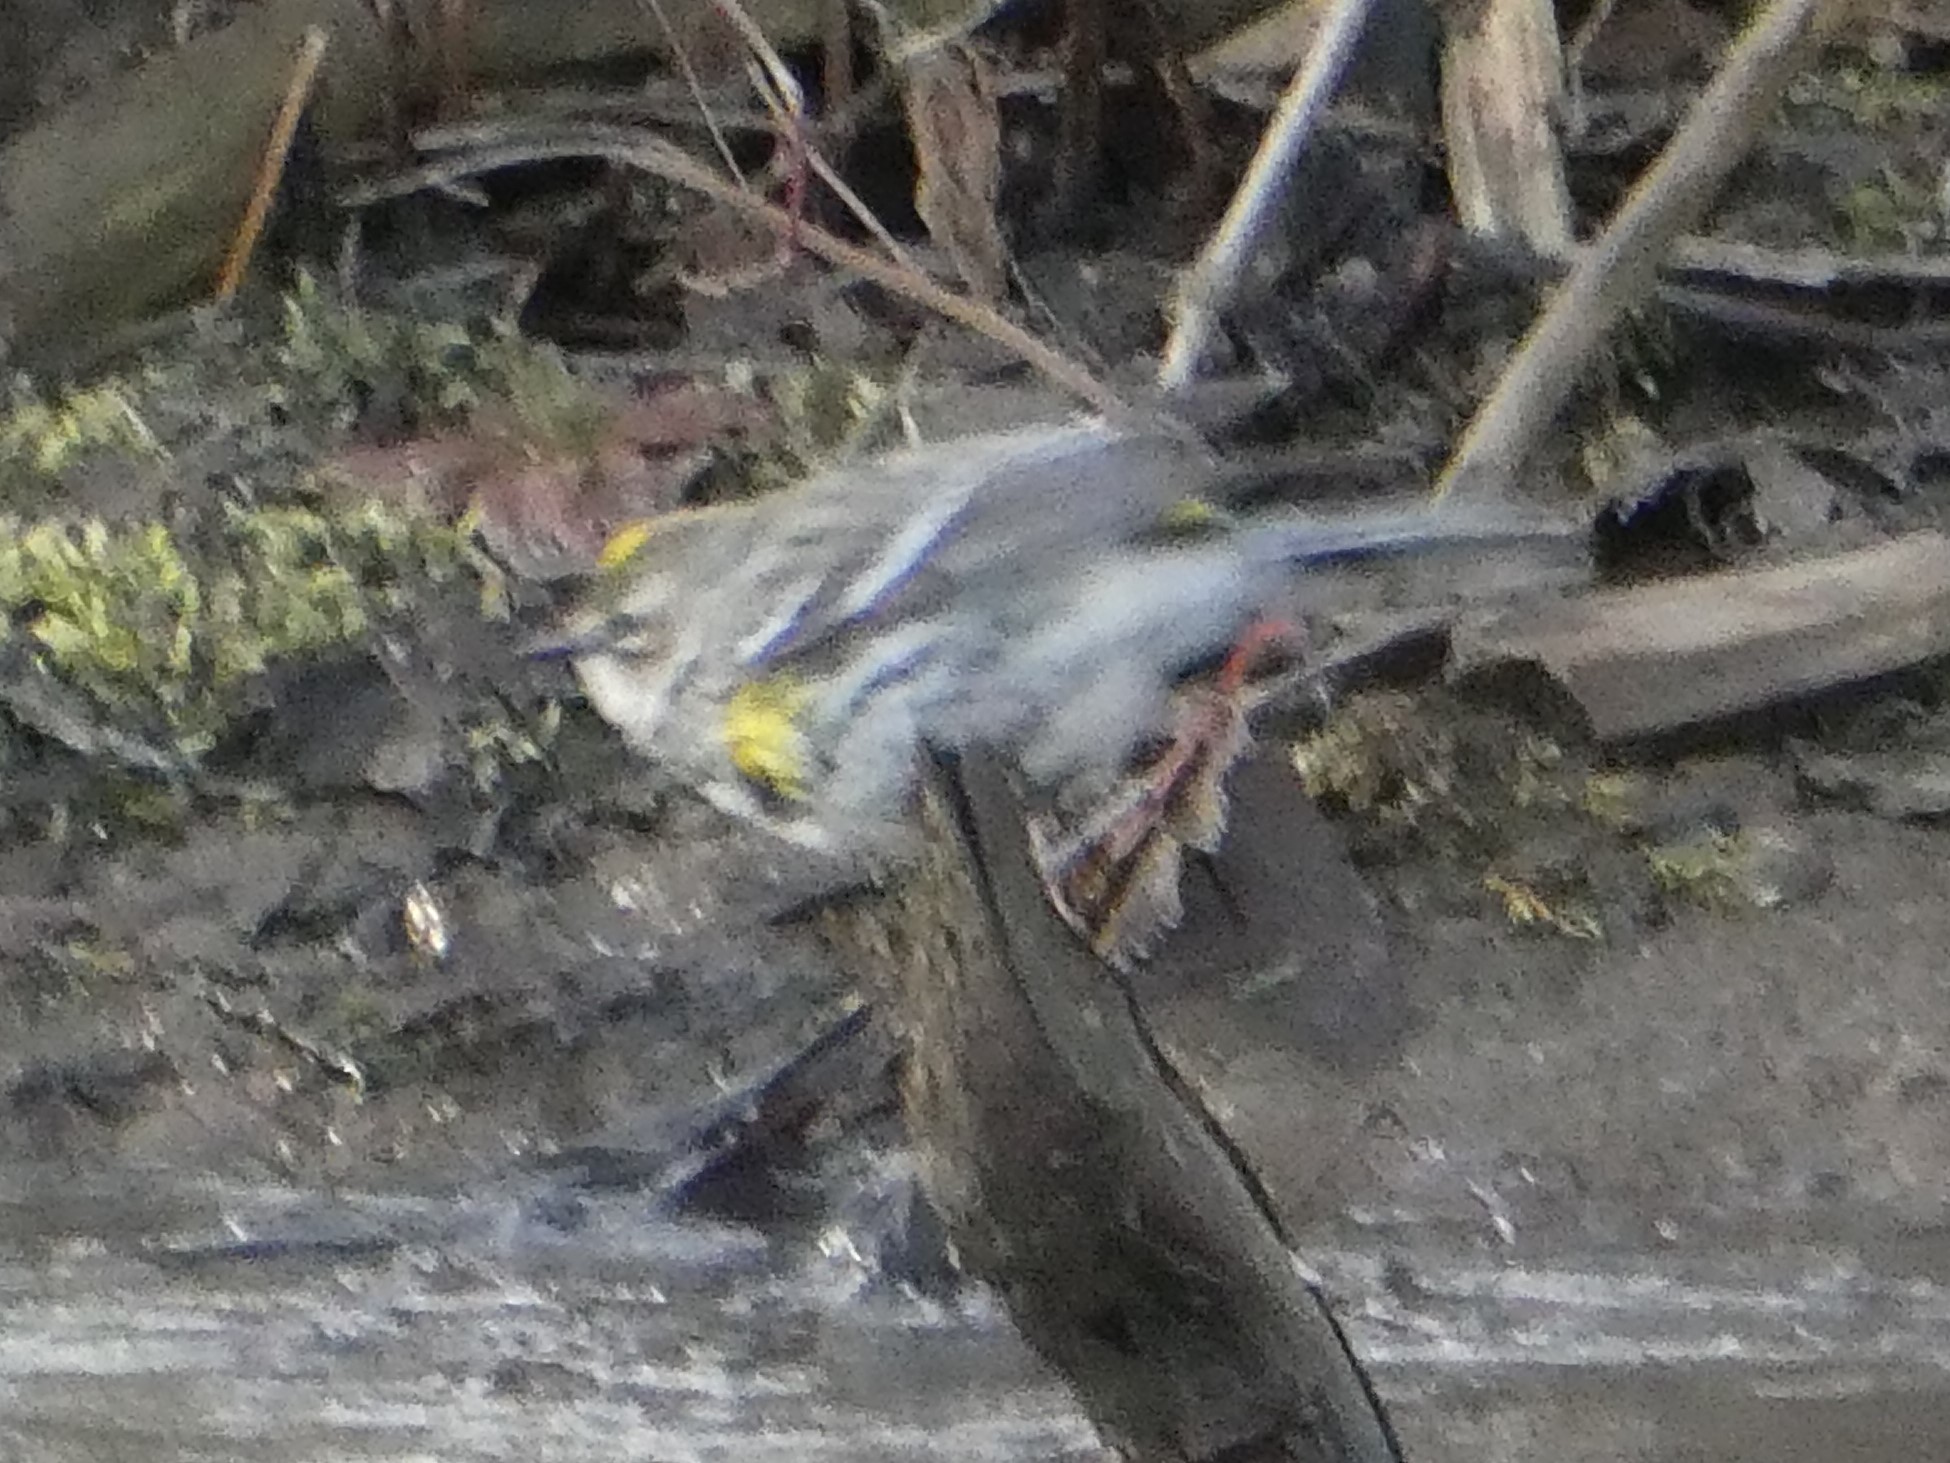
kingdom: Animalia
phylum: Chordata
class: Aves
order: Passeriformes
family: Parulidae
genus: Setophaga
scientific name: Setophaga coronata
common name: Myrtle warbler
